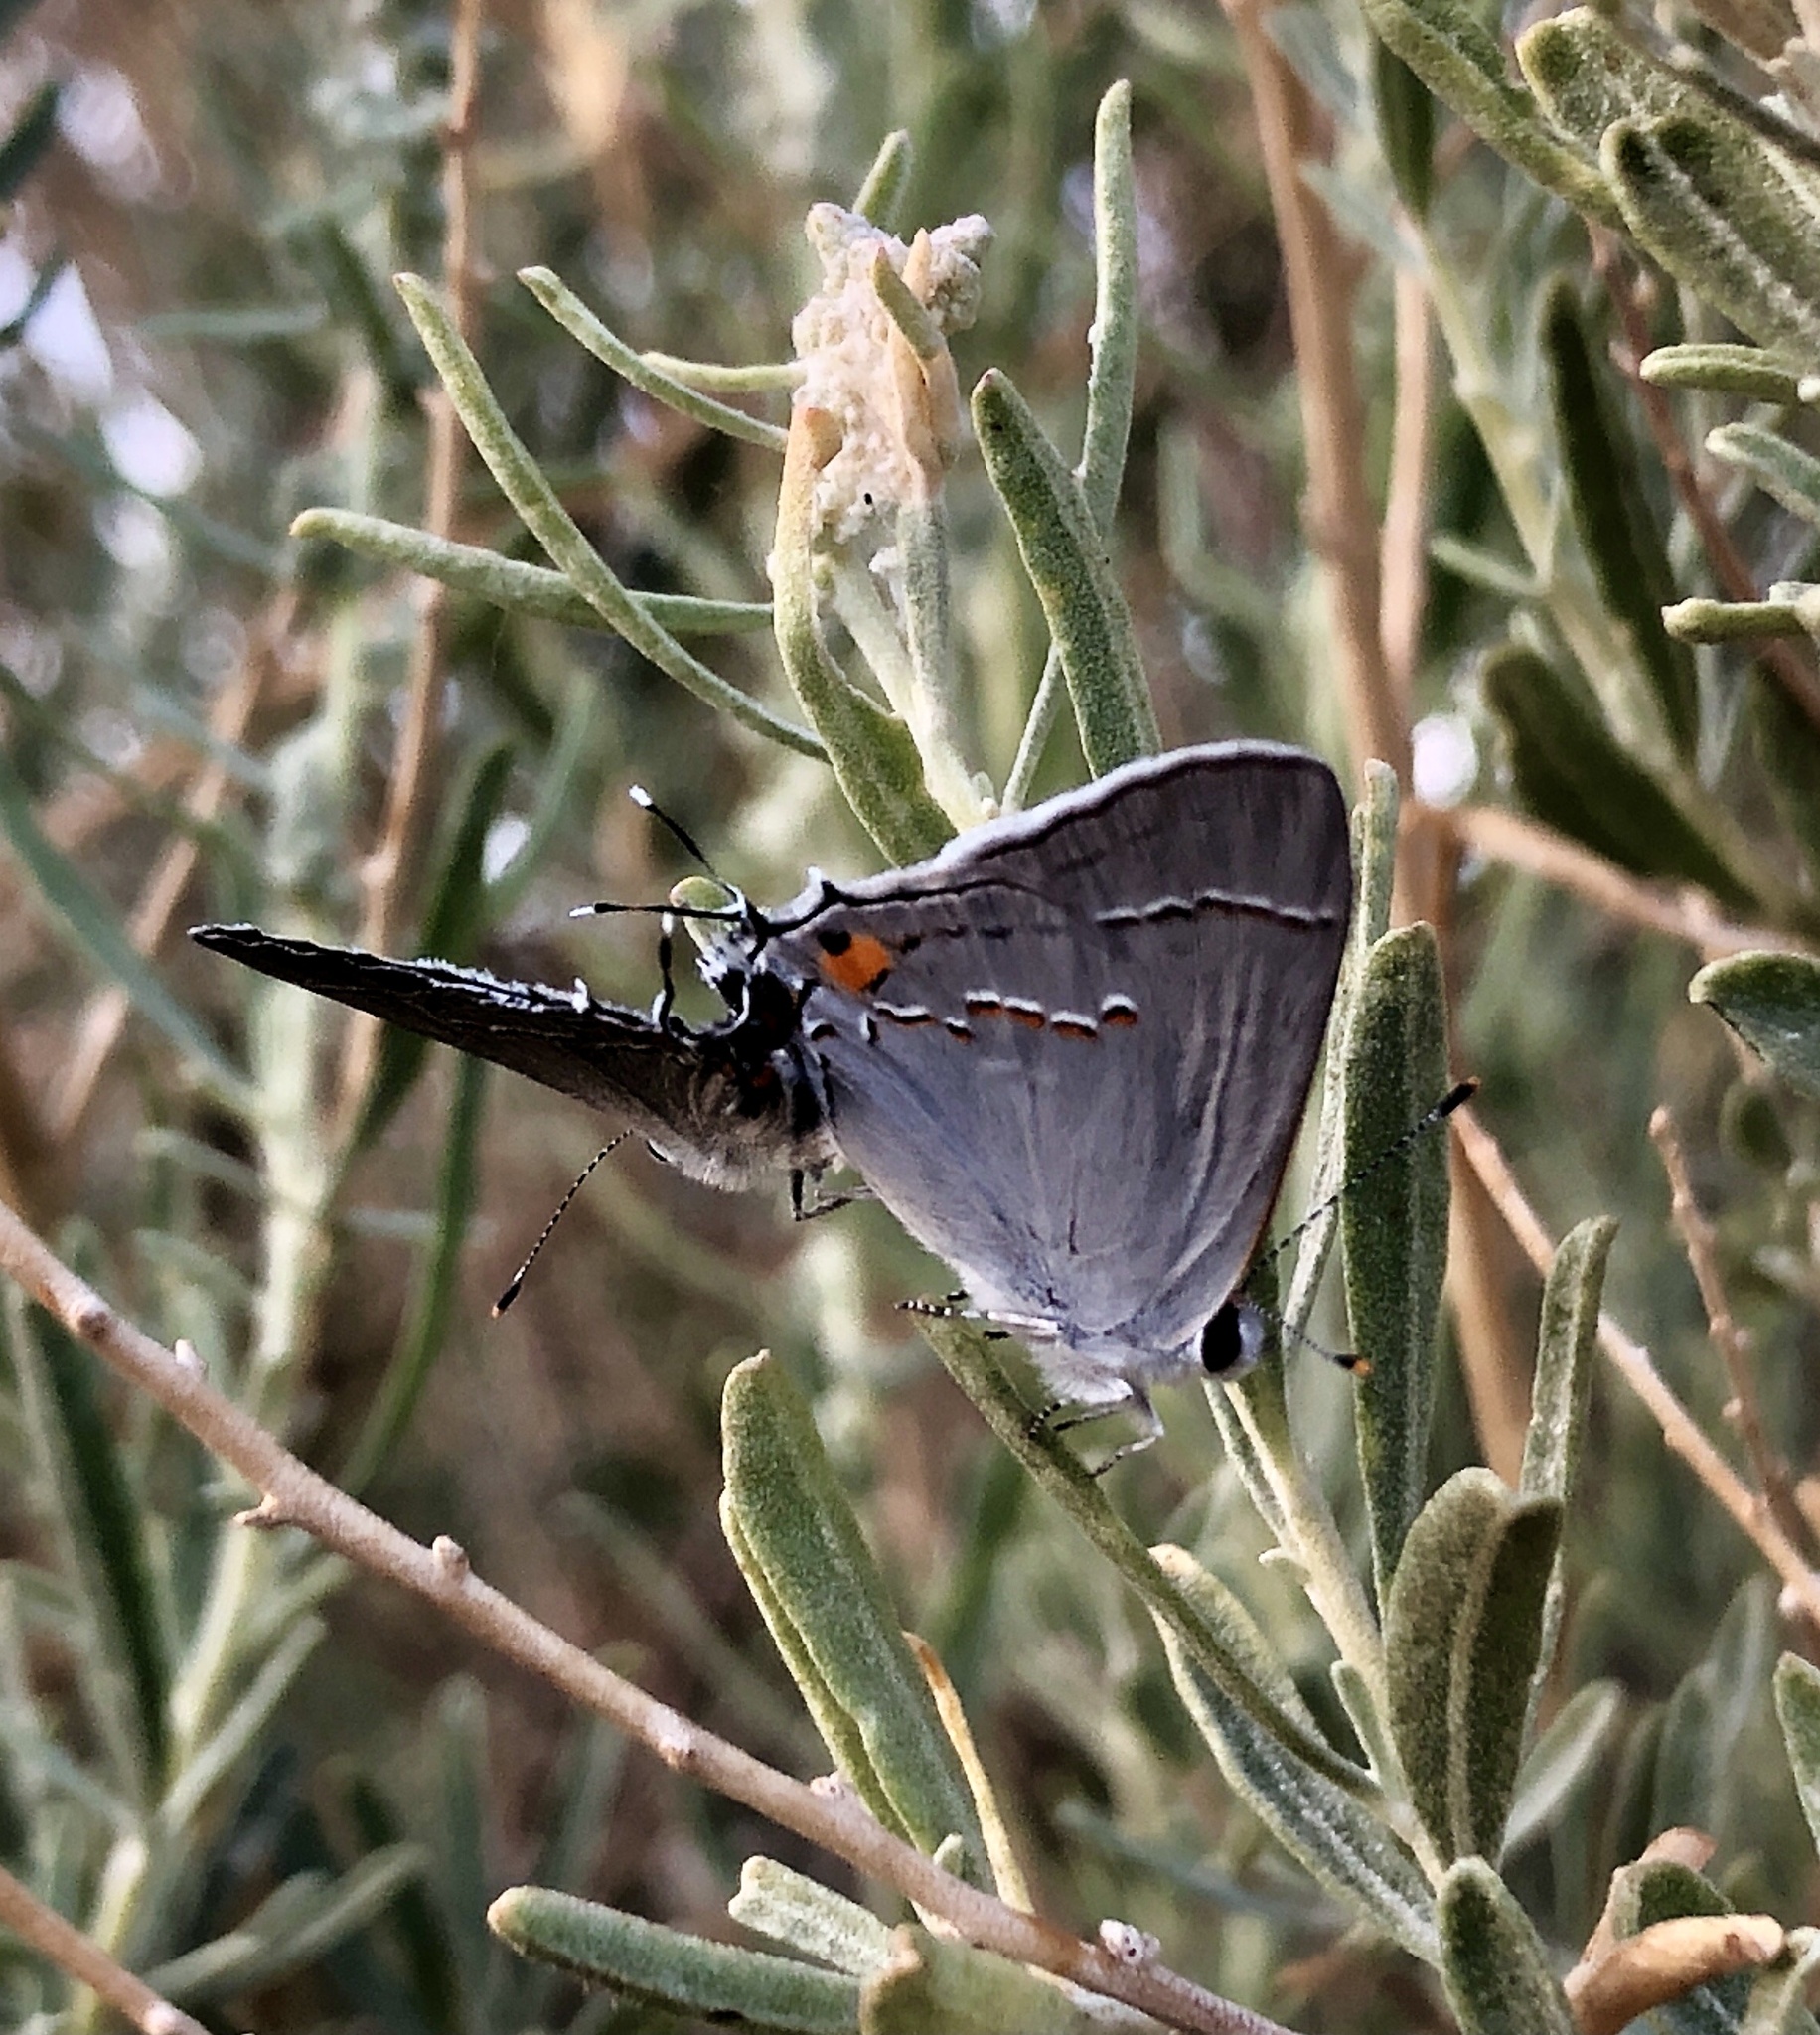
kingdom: Animalia
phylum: Arthropoda
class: Insecta
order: Lepidoptera
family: Lycaenidae
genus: Strymon
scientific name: Strymon melinus
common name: Gray hairstreak
